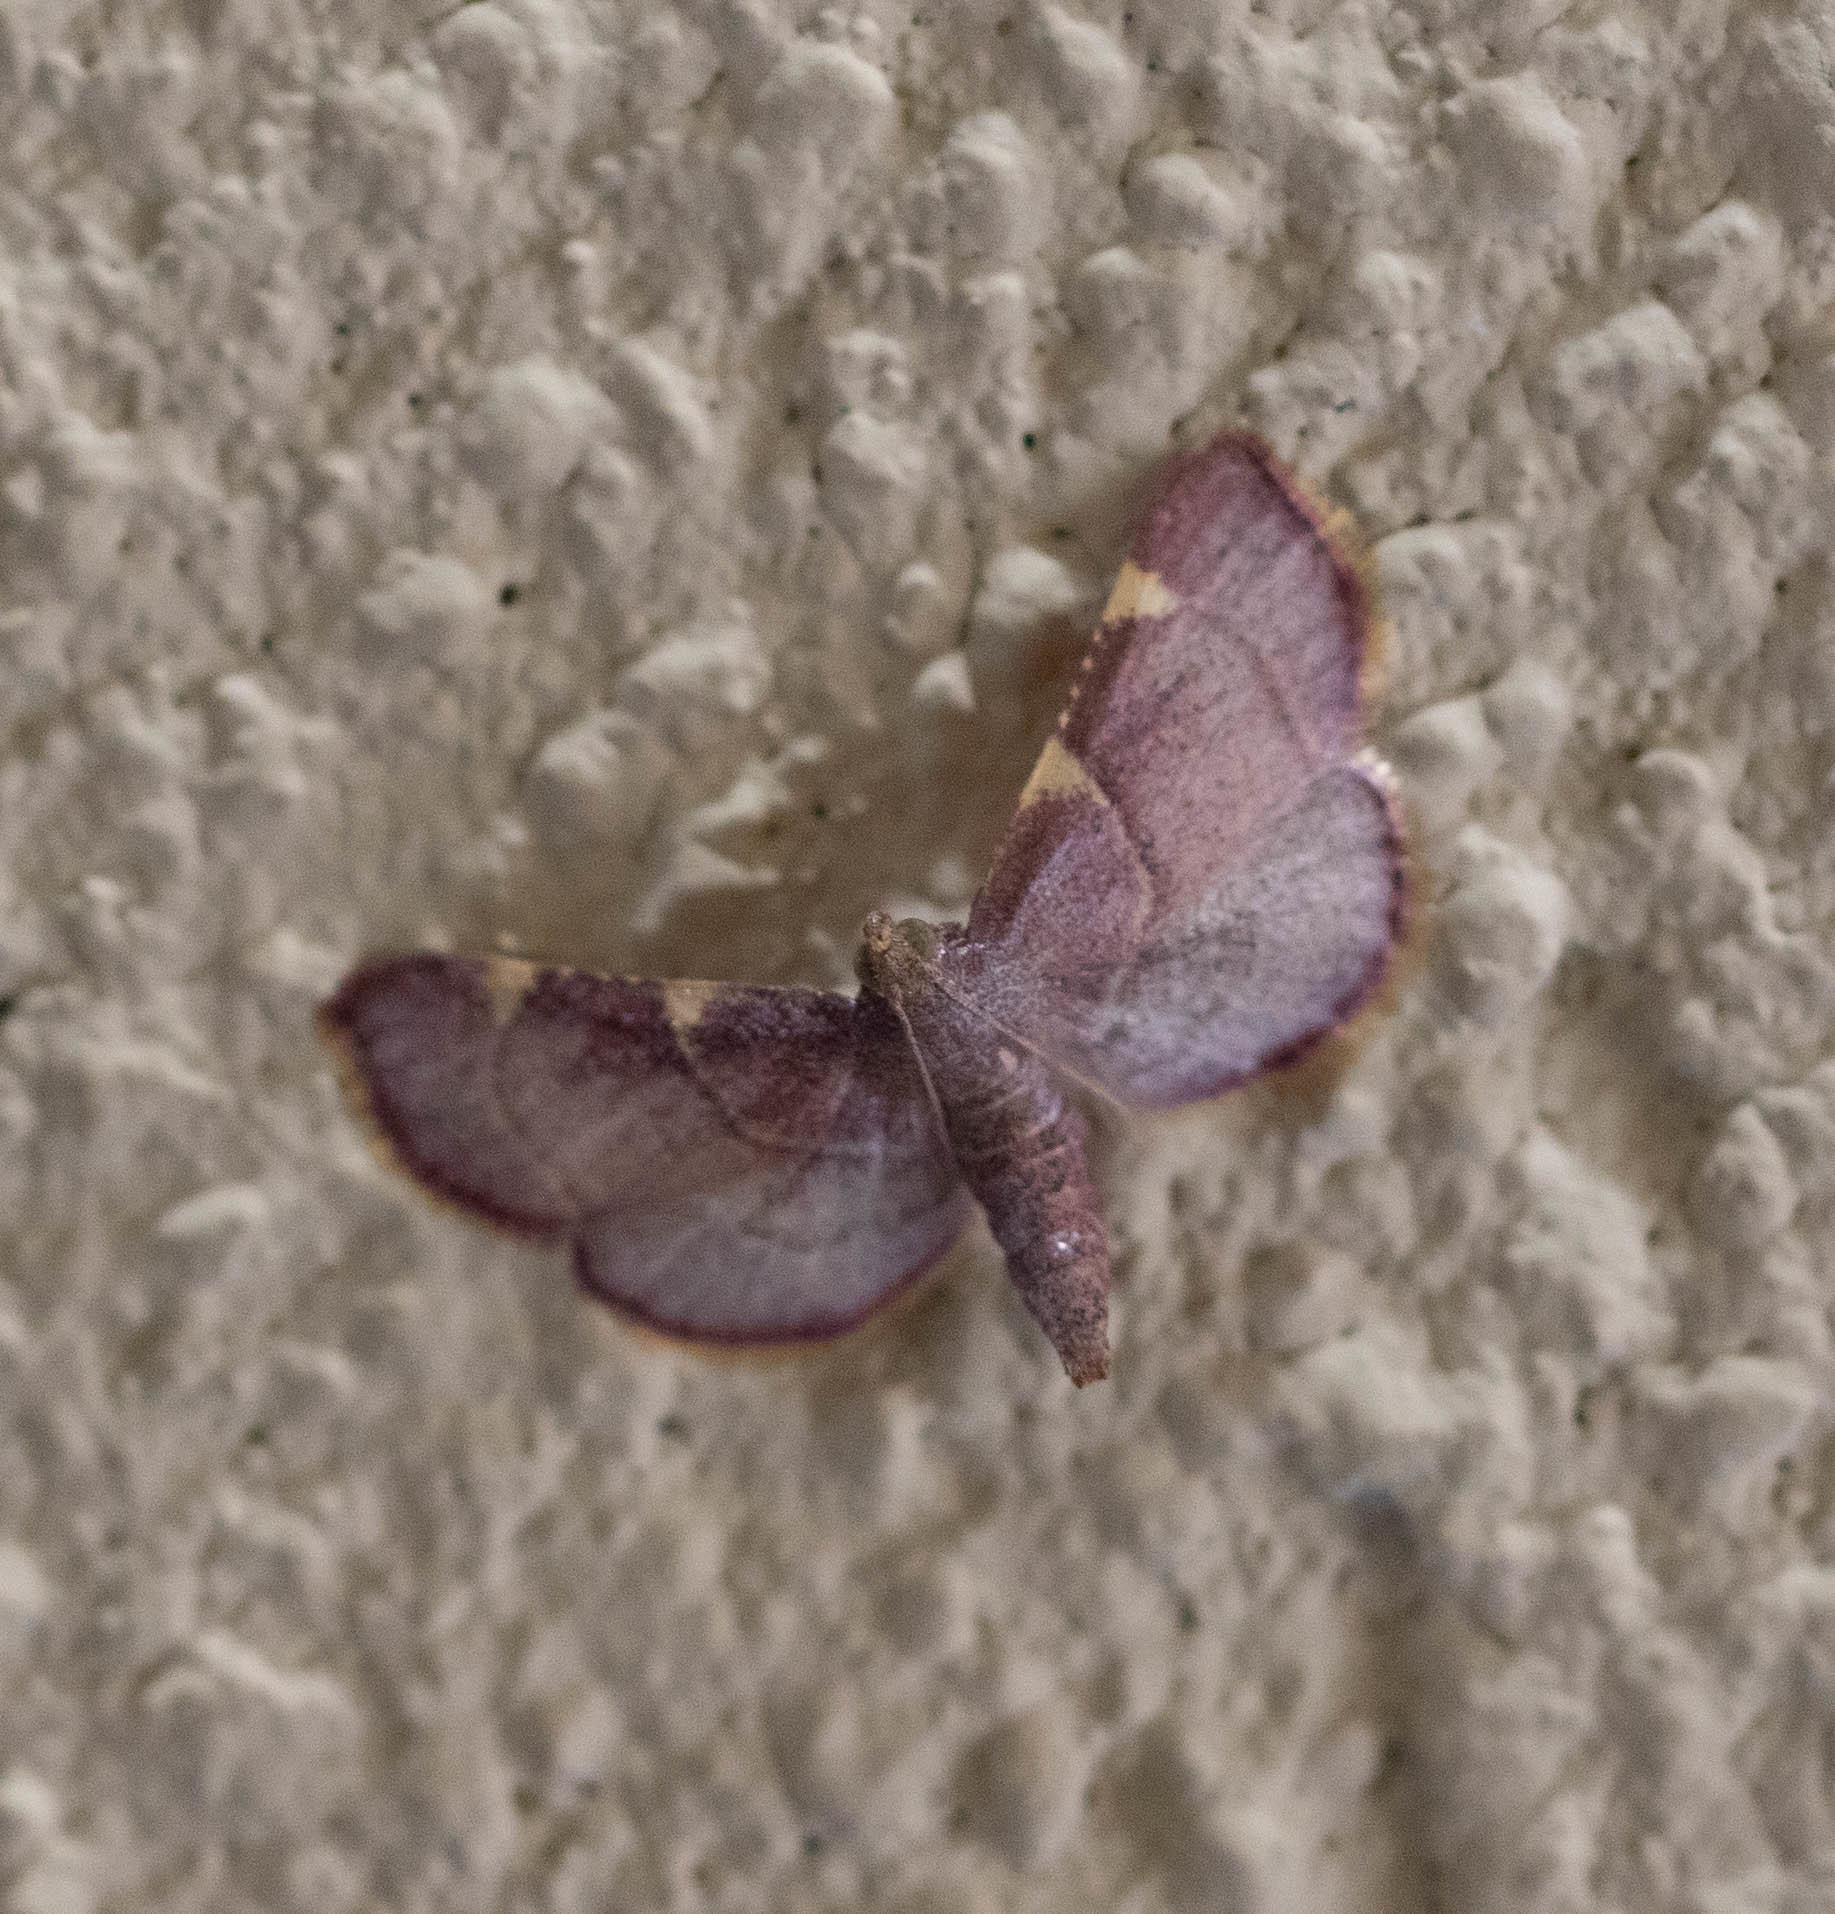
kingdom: Animalia
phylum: Arthropoda
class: Insecta
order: Lepidoptera
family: Pyralidae
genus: Hypsopygia
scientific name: Hypsopygia olinalis
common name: Yellow-fringed dolichomia moth
